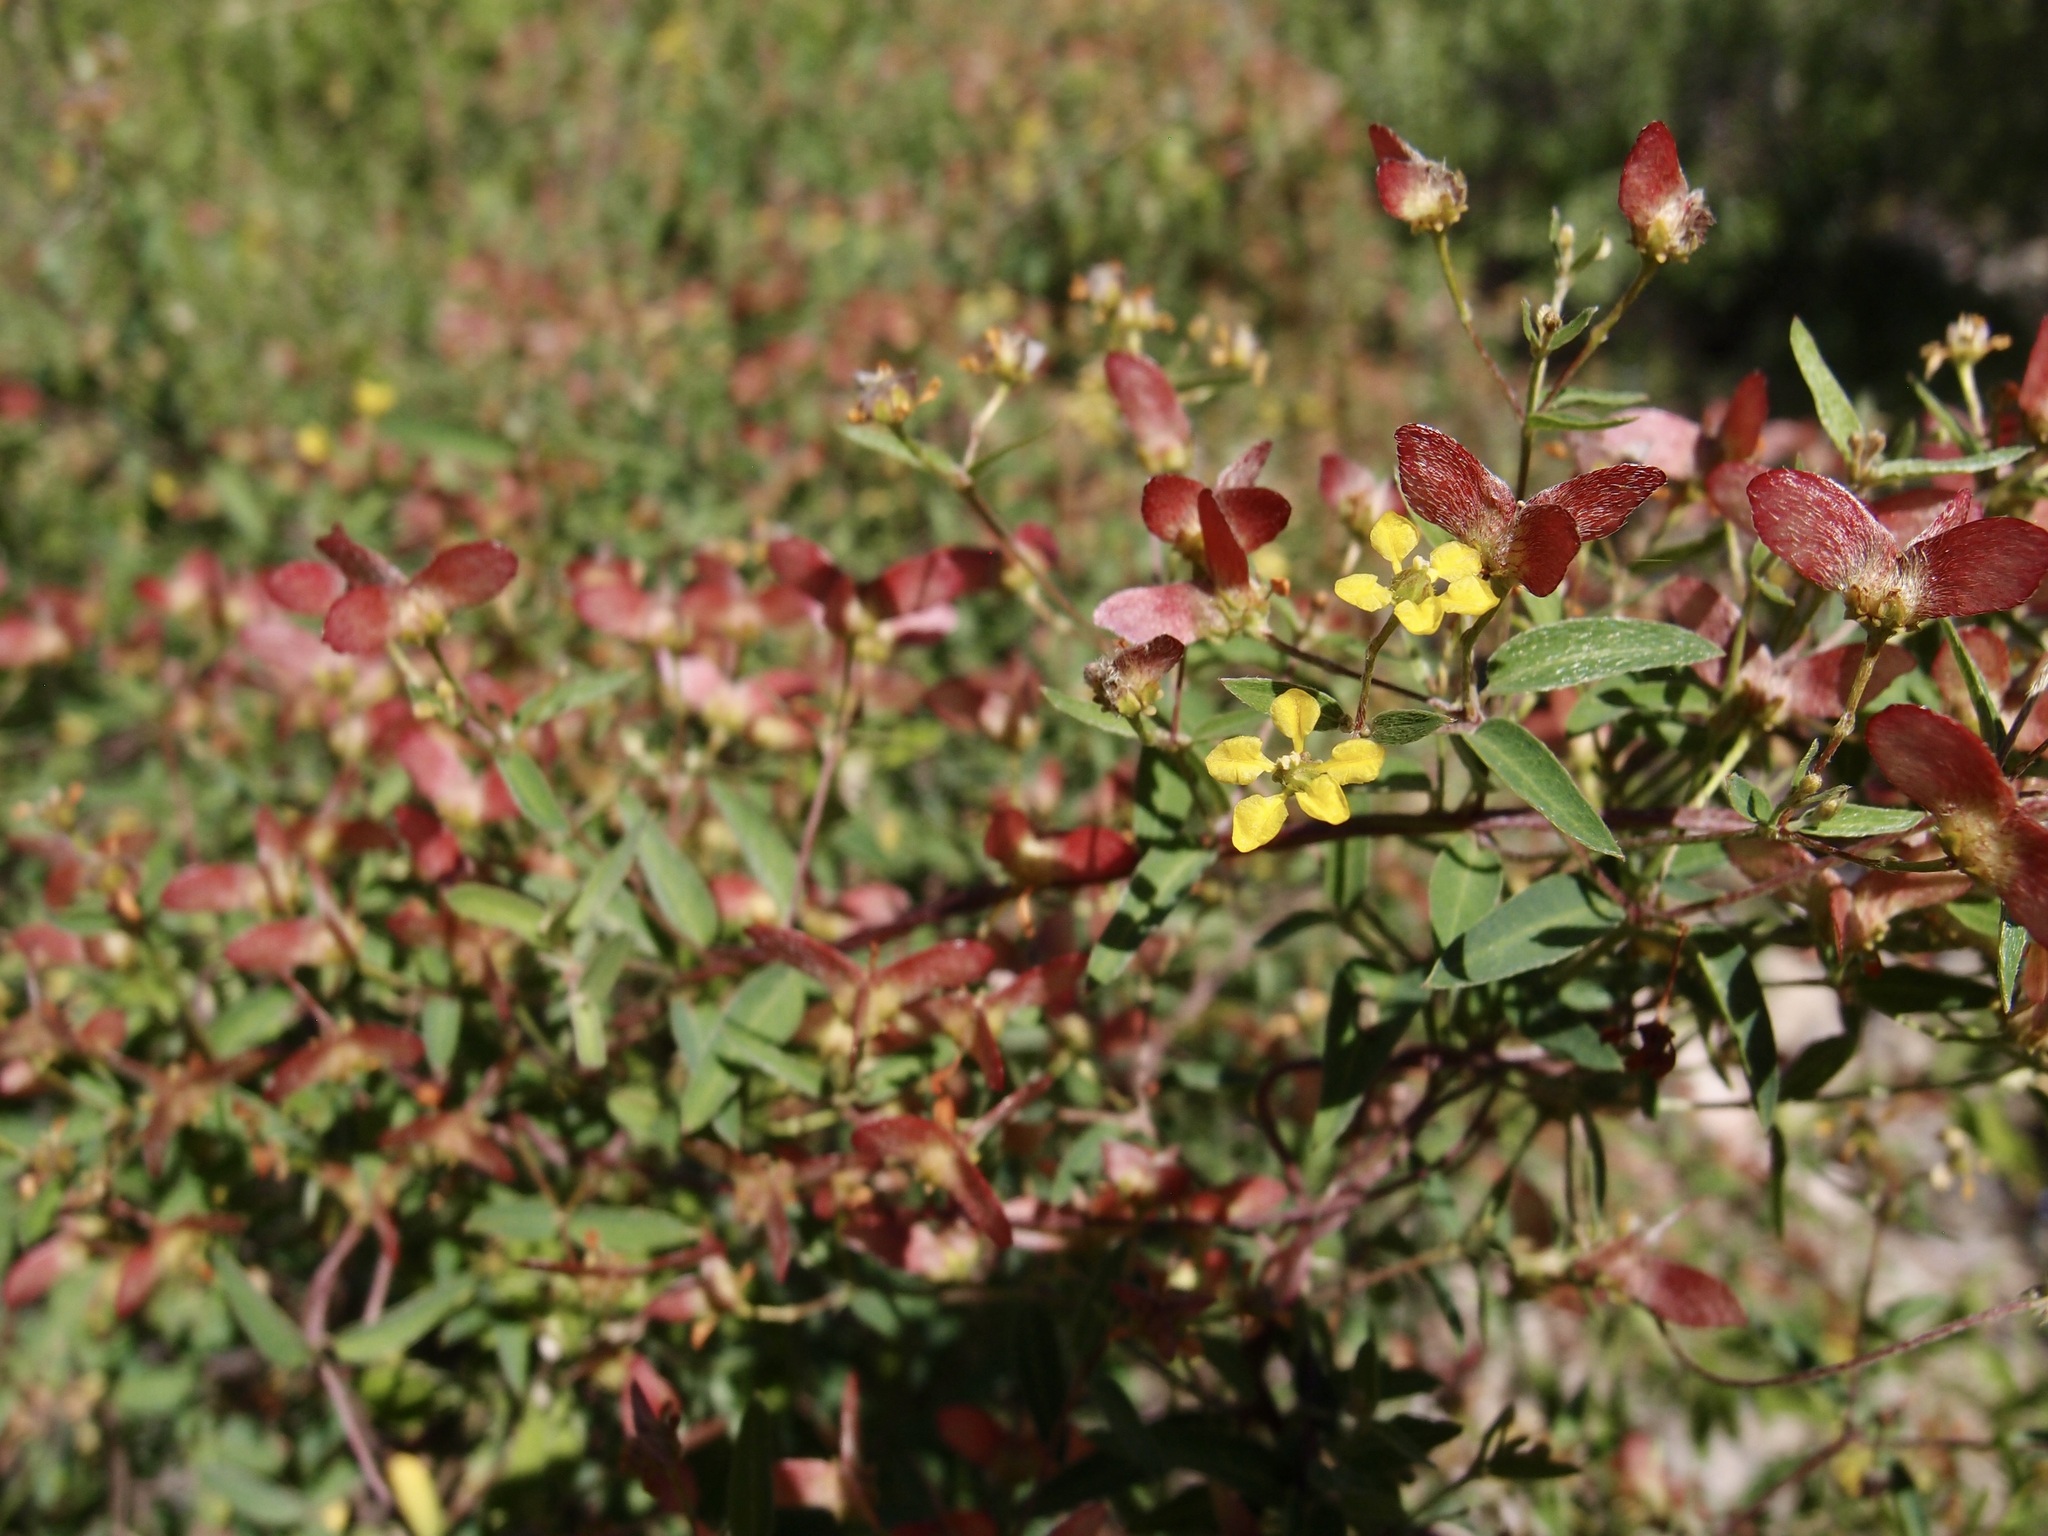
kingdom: Plantae
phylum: Tracheophyta
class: Magnoliopsida
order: Malpighiales
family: Malpighiaceae
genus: Cottsia
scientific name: Cottsia gracilis
